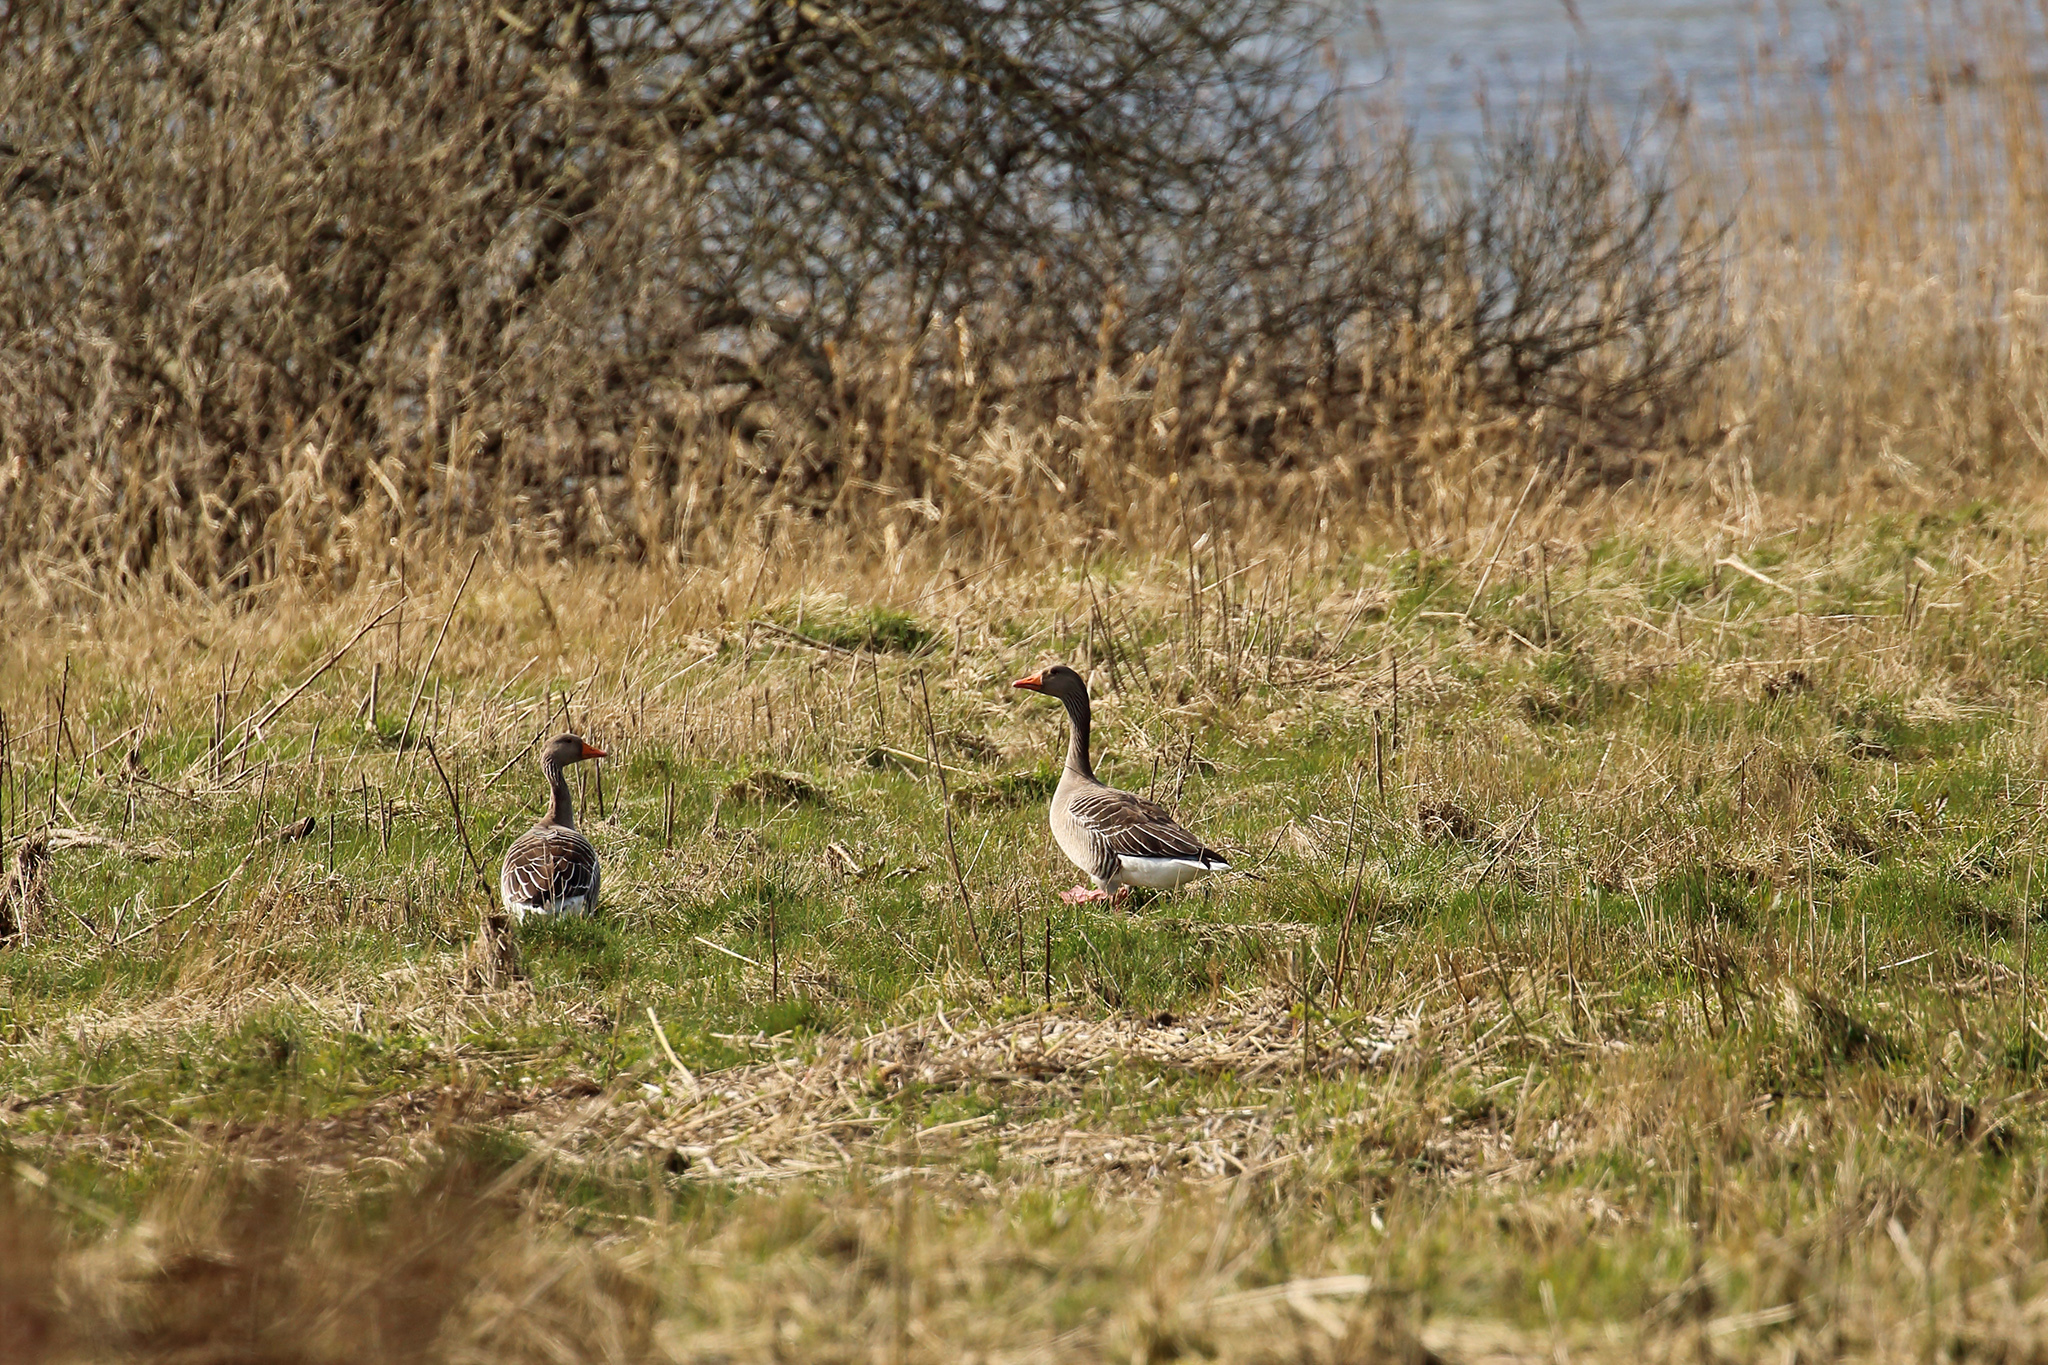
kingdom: Animalia
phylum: Chordata
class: Aves
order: Anseriformes
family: Anatidae
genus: Anser
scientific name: Anser anser
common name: Greylag goose
